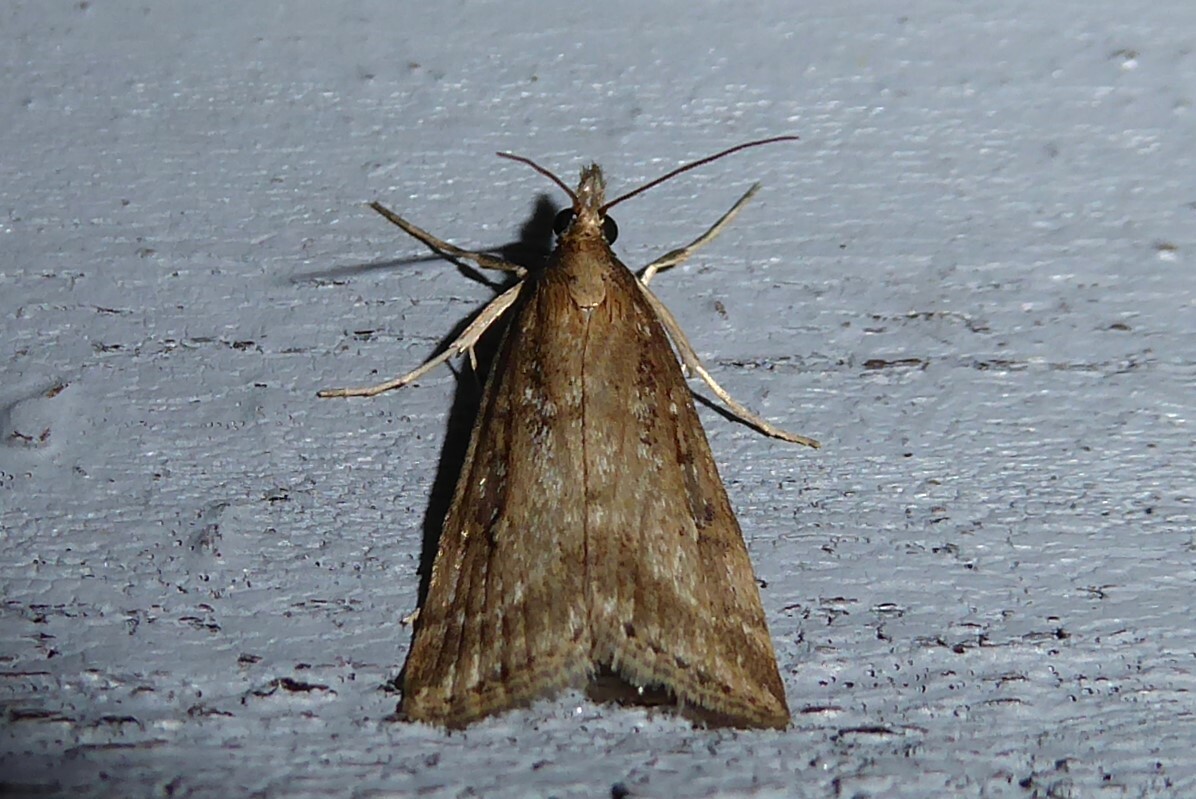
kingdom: Animalia
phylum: Arthropoda
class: Insecta
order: Lepidoptera
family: Crambidae
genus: Eudonia
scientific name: Eudonia octophora
